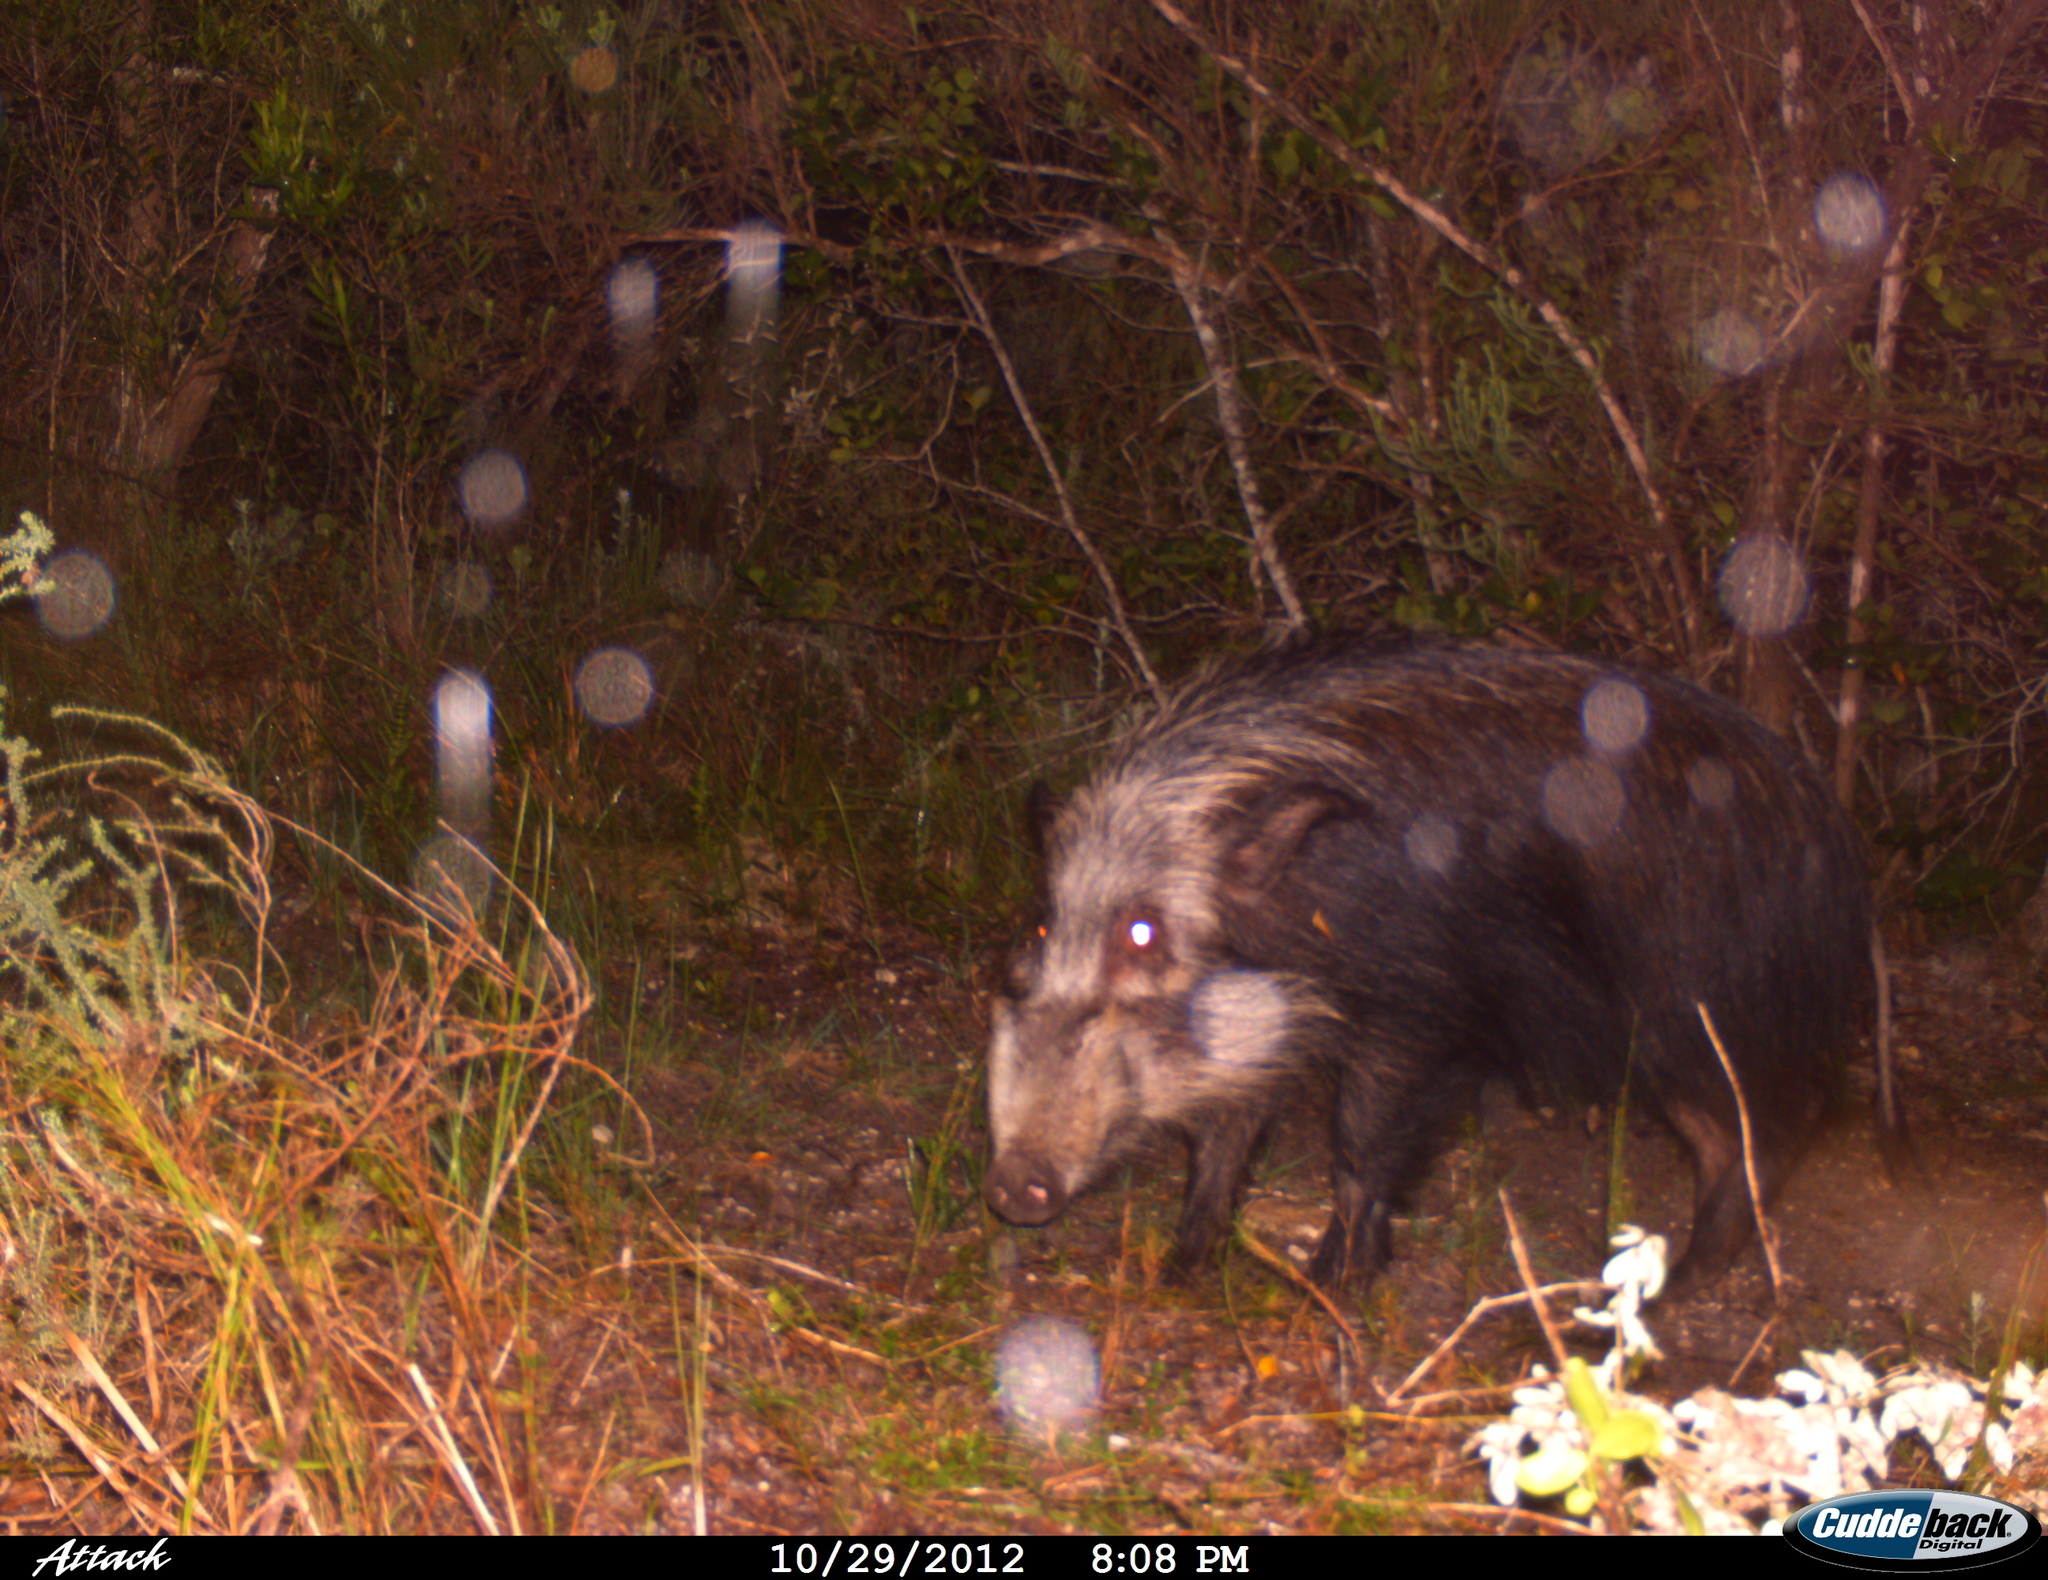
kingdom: Animalia
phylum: Chordata
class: Mammalia
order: Artiodactyla
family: Suidae
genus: Potamochoerus
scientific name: Potamochoerus larvatus
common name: Bushpig
